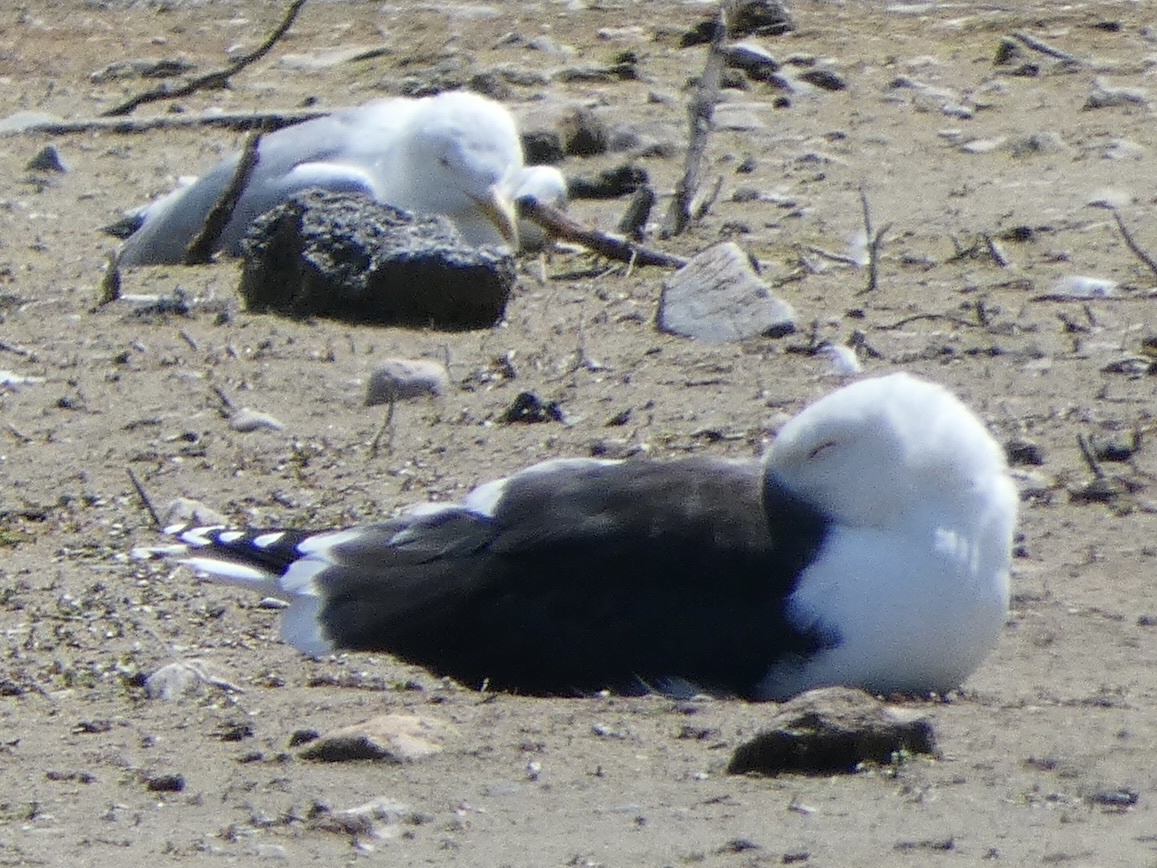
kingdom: Animalia
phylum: Chordata
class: Aves
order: Charadriiformes
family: Laridae
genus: Larus
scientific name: Larus marinus
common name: Great black-backed gull
